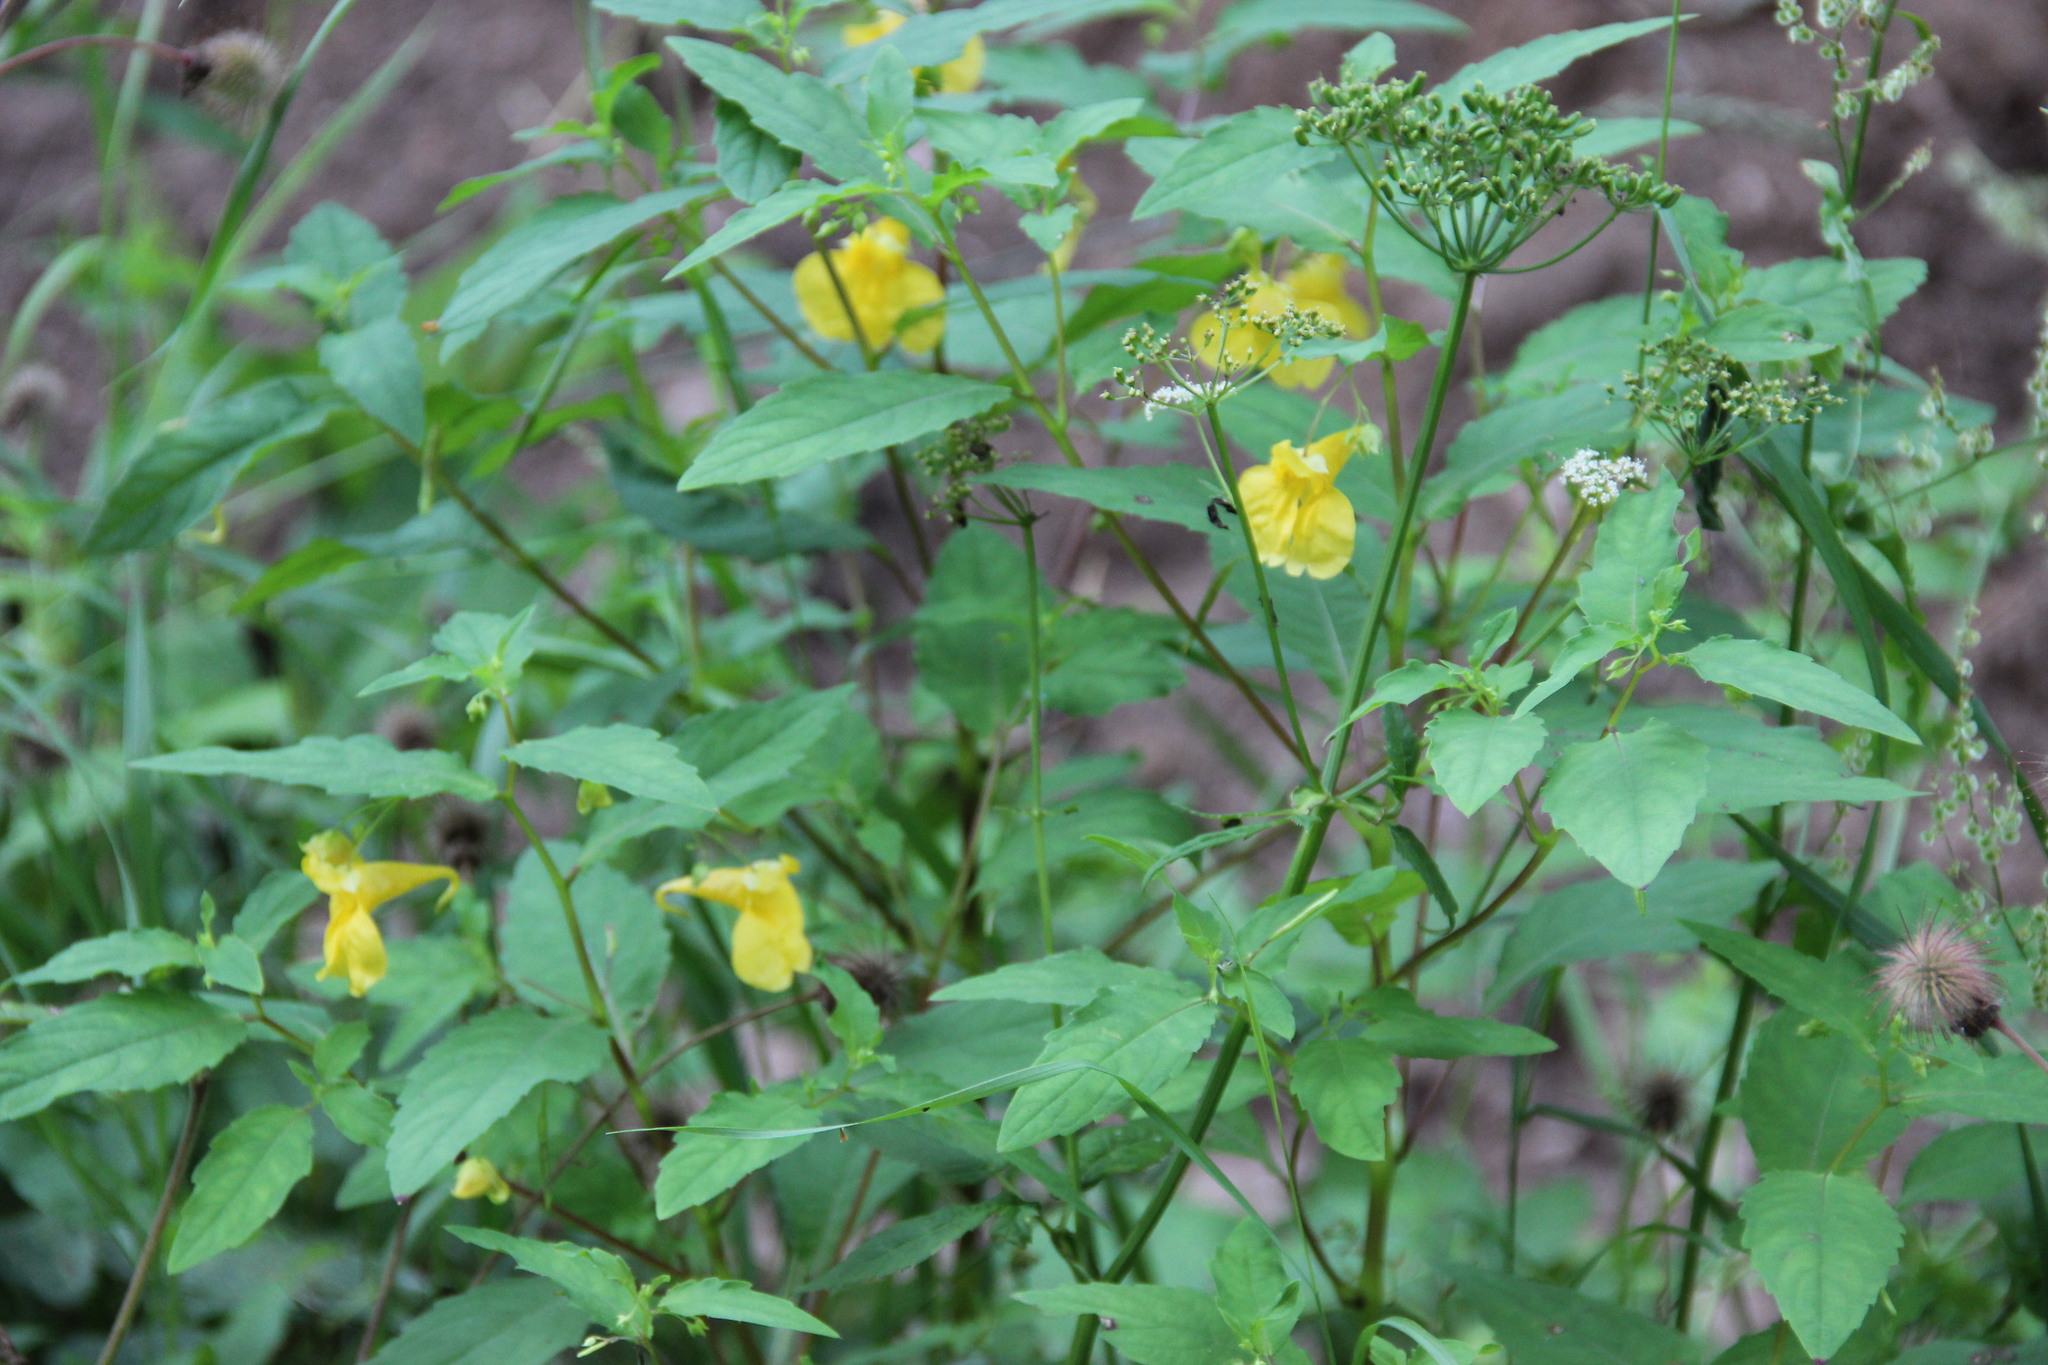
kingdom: Plantae
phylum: Tracheophyta
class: Magnoliopsida
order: Ericales
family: Balsaminaceae
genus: Impatiens
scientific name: Impatiens noli-tangere
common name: Touch-me-not balsam
